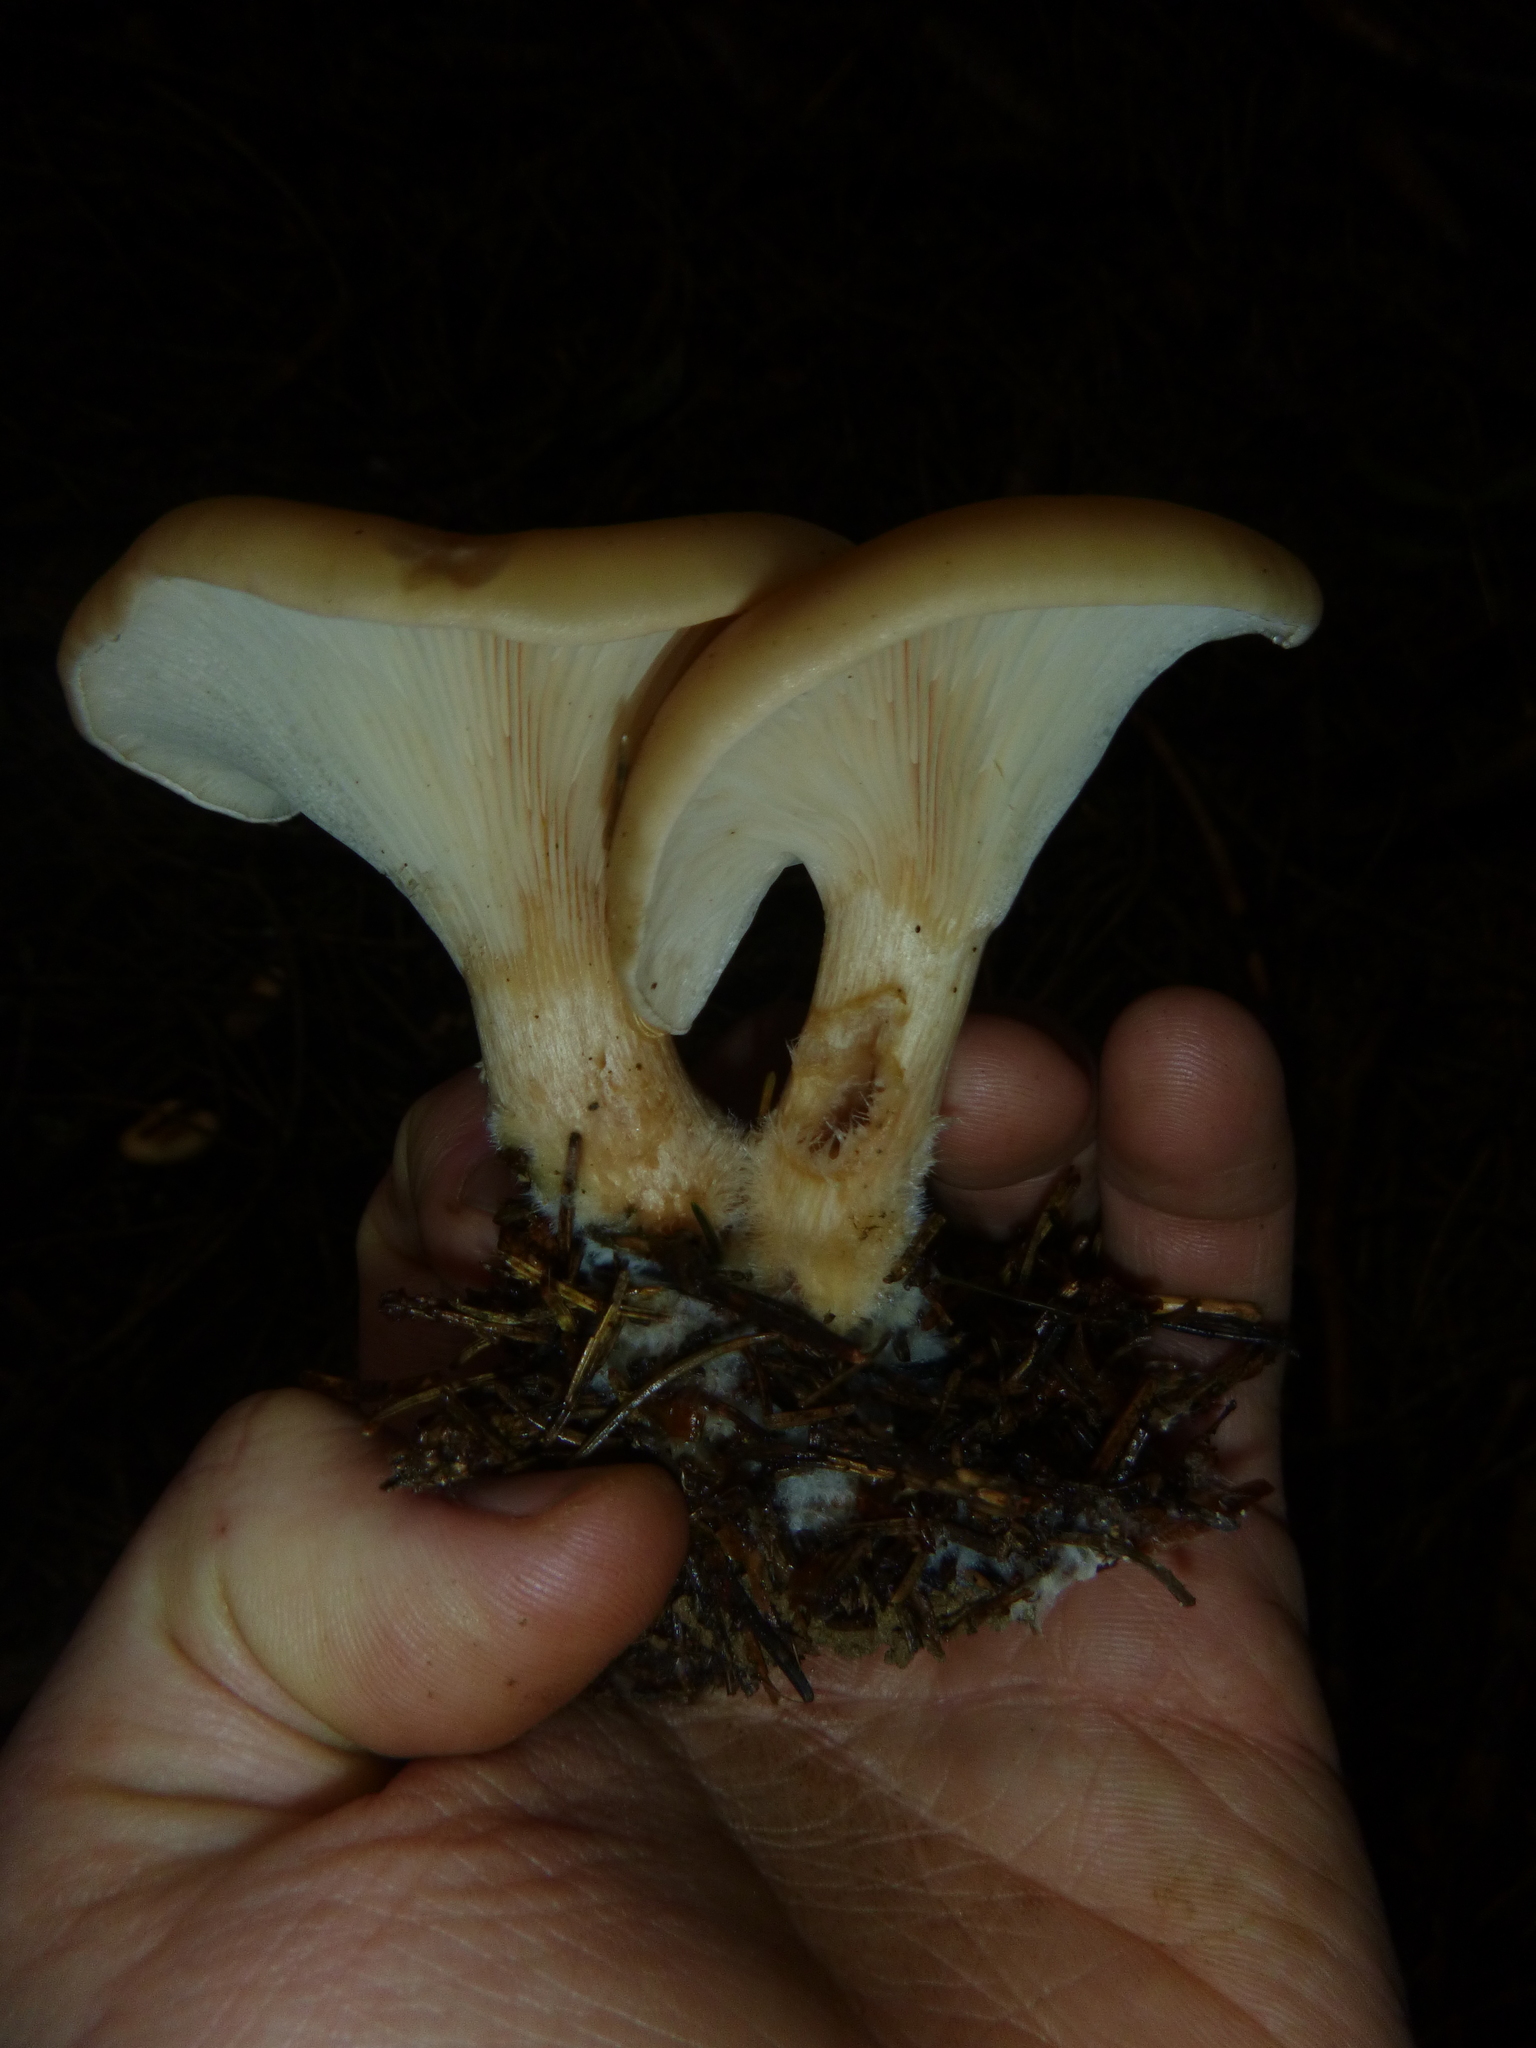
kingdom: Fungi
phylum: Basidiomycota
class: Agaricomycetes
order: Agaricales
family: Tricholomataceae
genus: Paralepista
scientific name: Paralepista flaccida
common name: Tawny funnel cap
